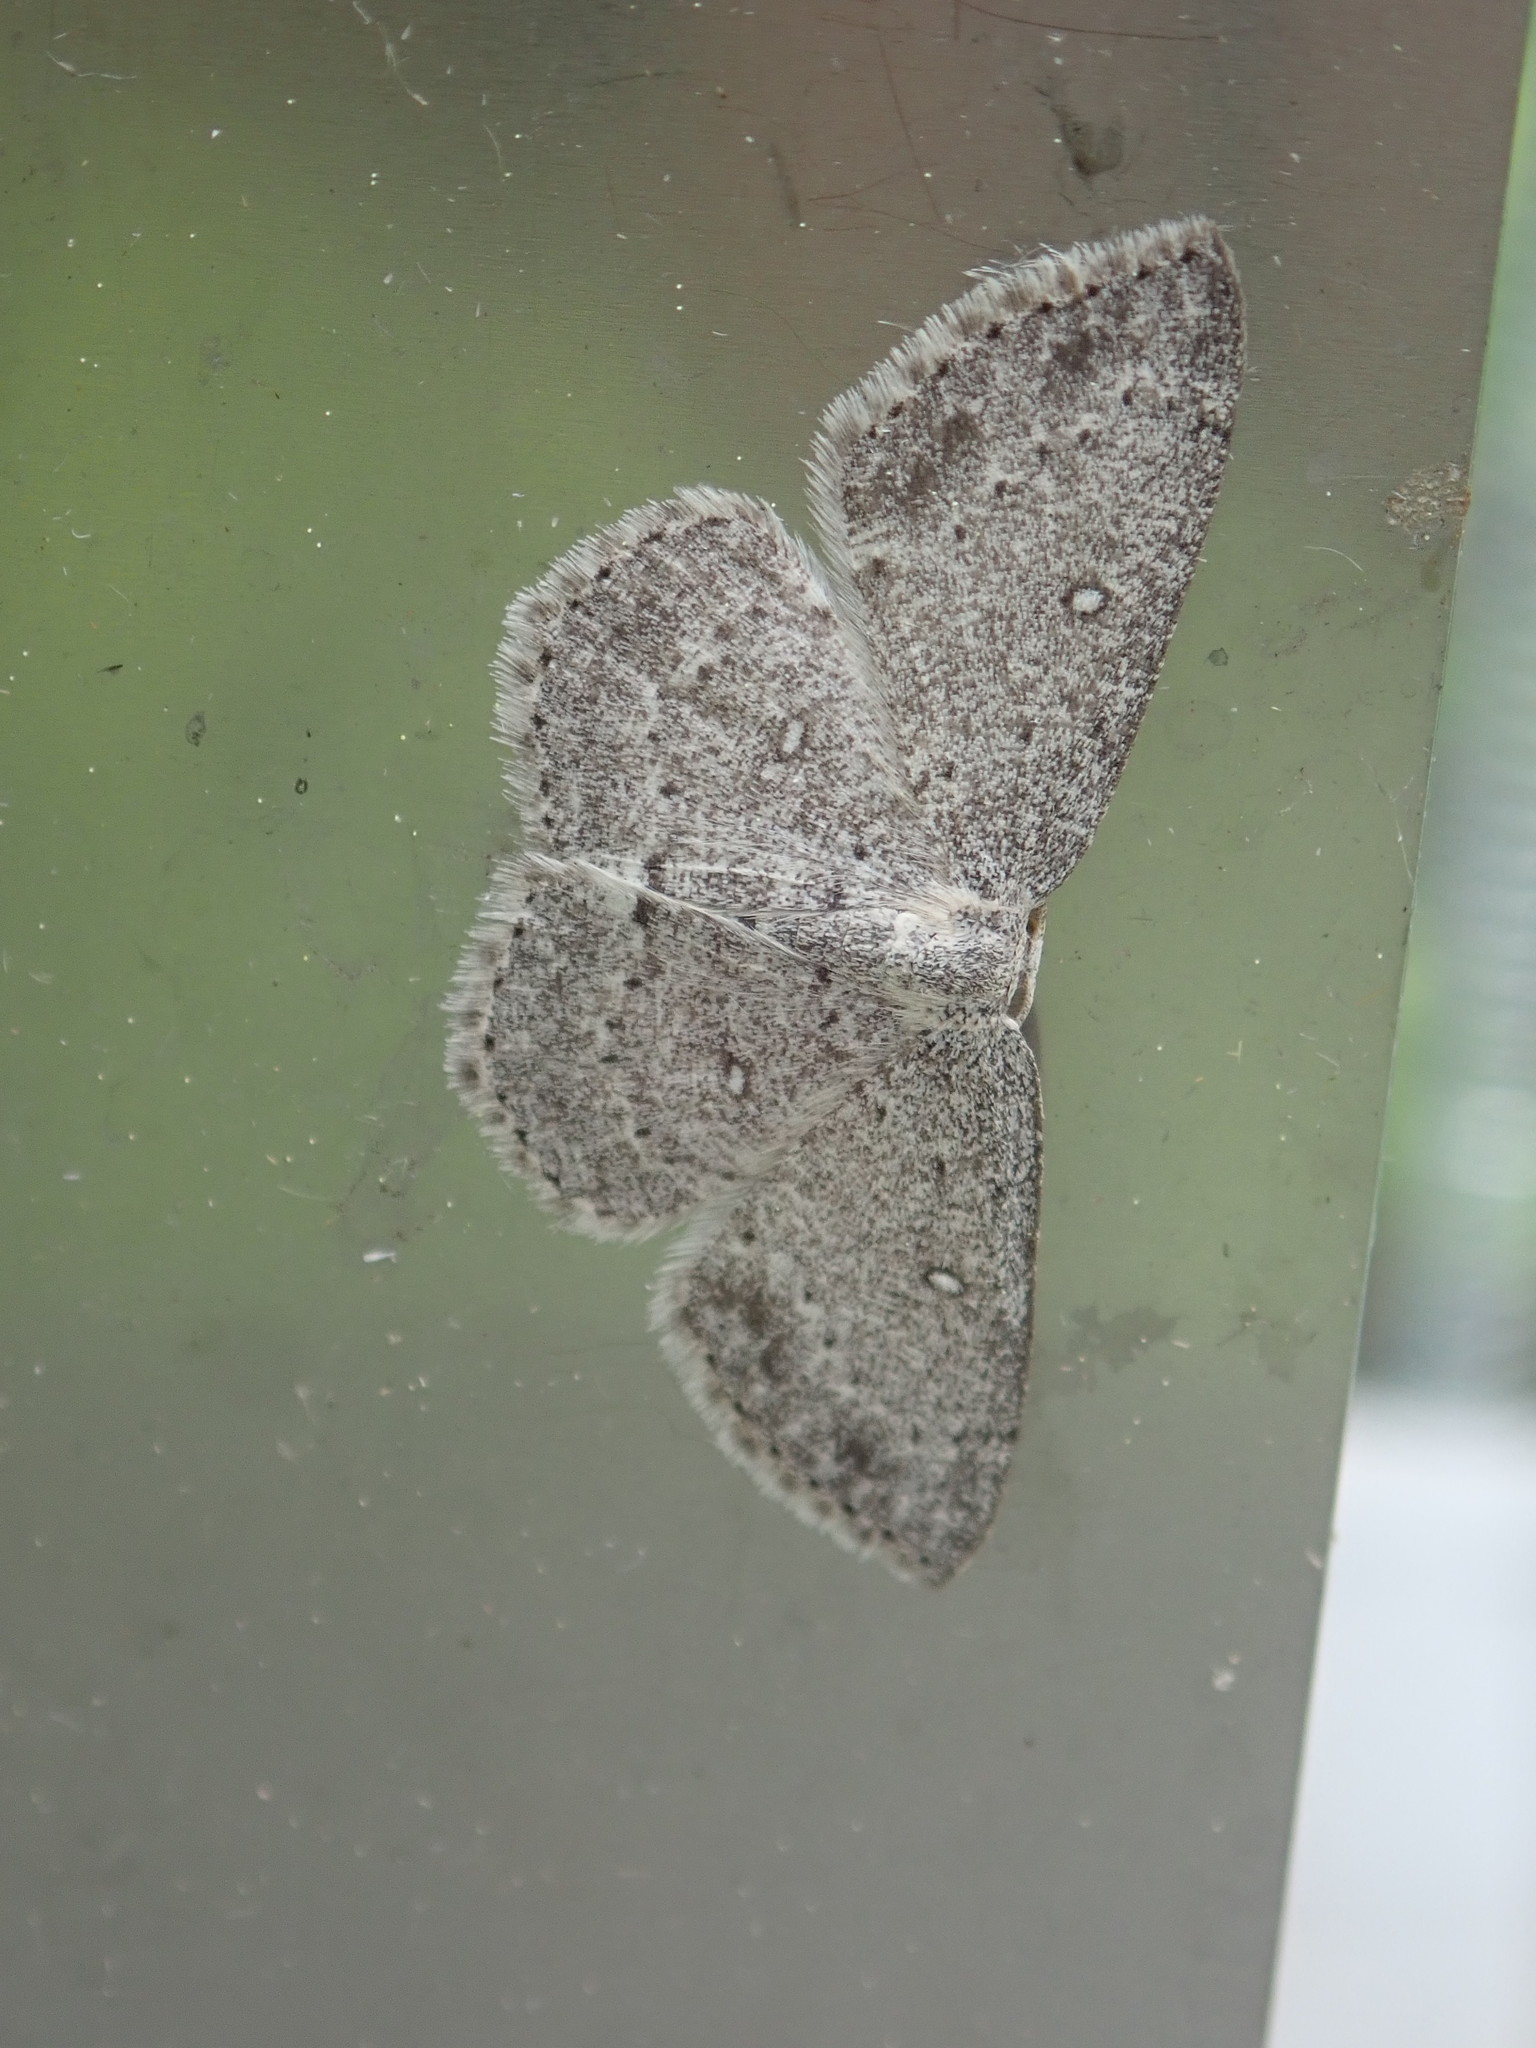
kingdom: Animalia
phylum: Arthropoda
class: Insecta
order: Lepidoptera
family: Geometridae
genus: Cyclophora
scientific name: Cyclophora pendulinaria
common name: Sweet fern geometer
